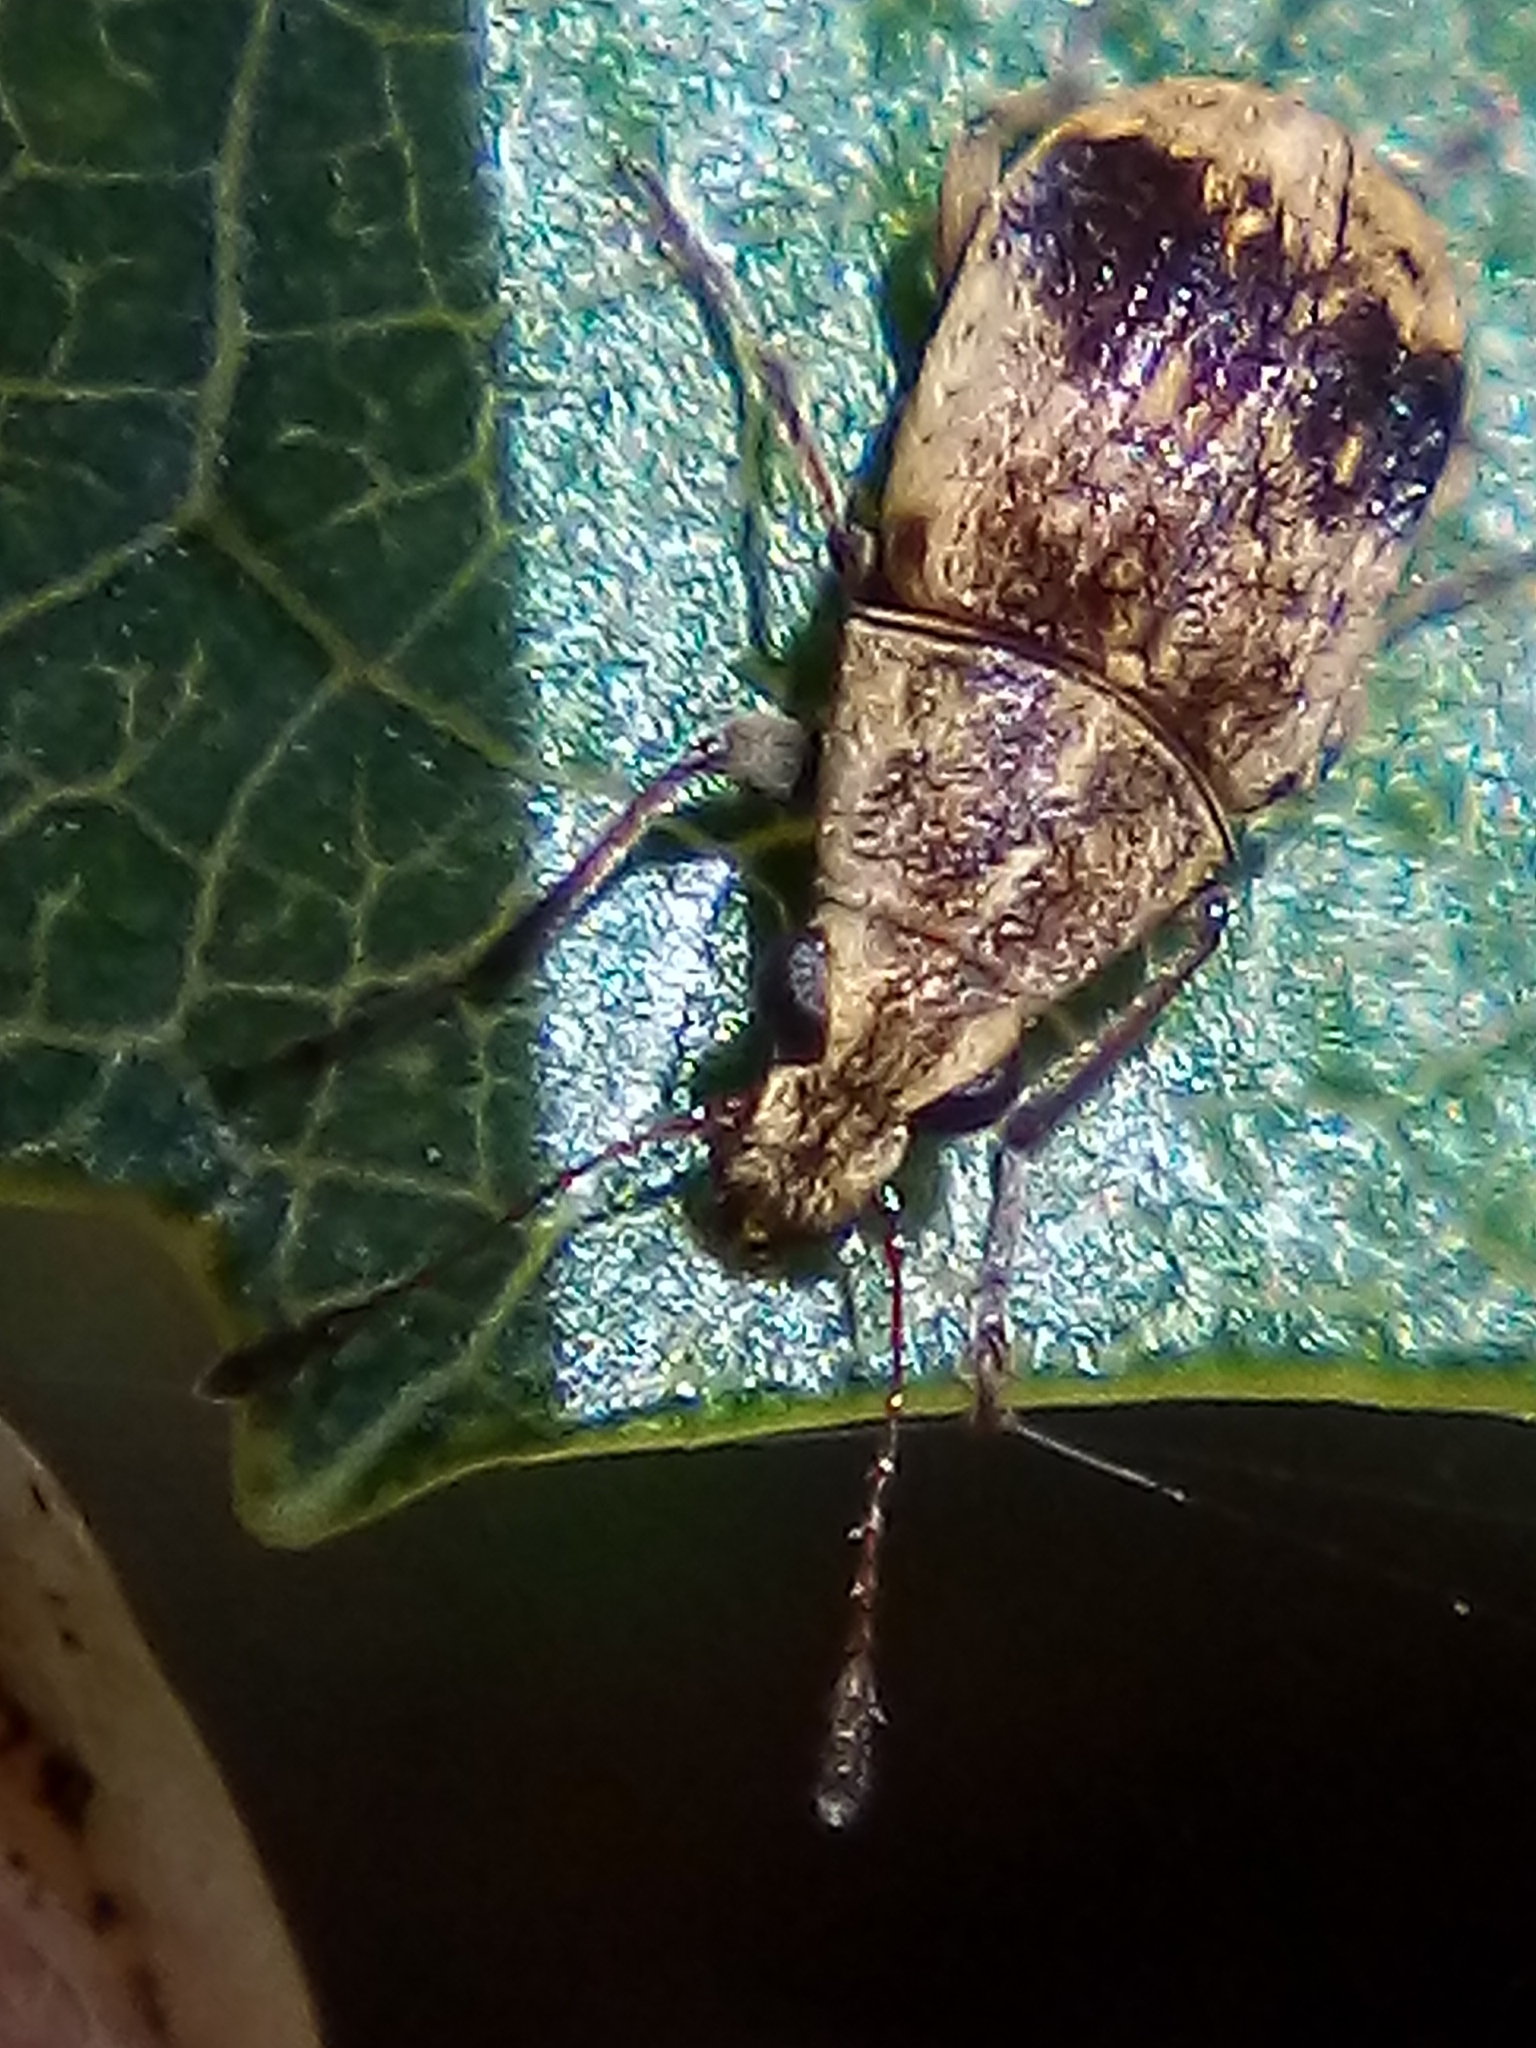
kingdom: Animalia
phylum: Arthropoda
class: Insecta
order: Coleoptera
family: Anthribidae
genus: Cacephatus
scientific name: Cacephatus huttoni
